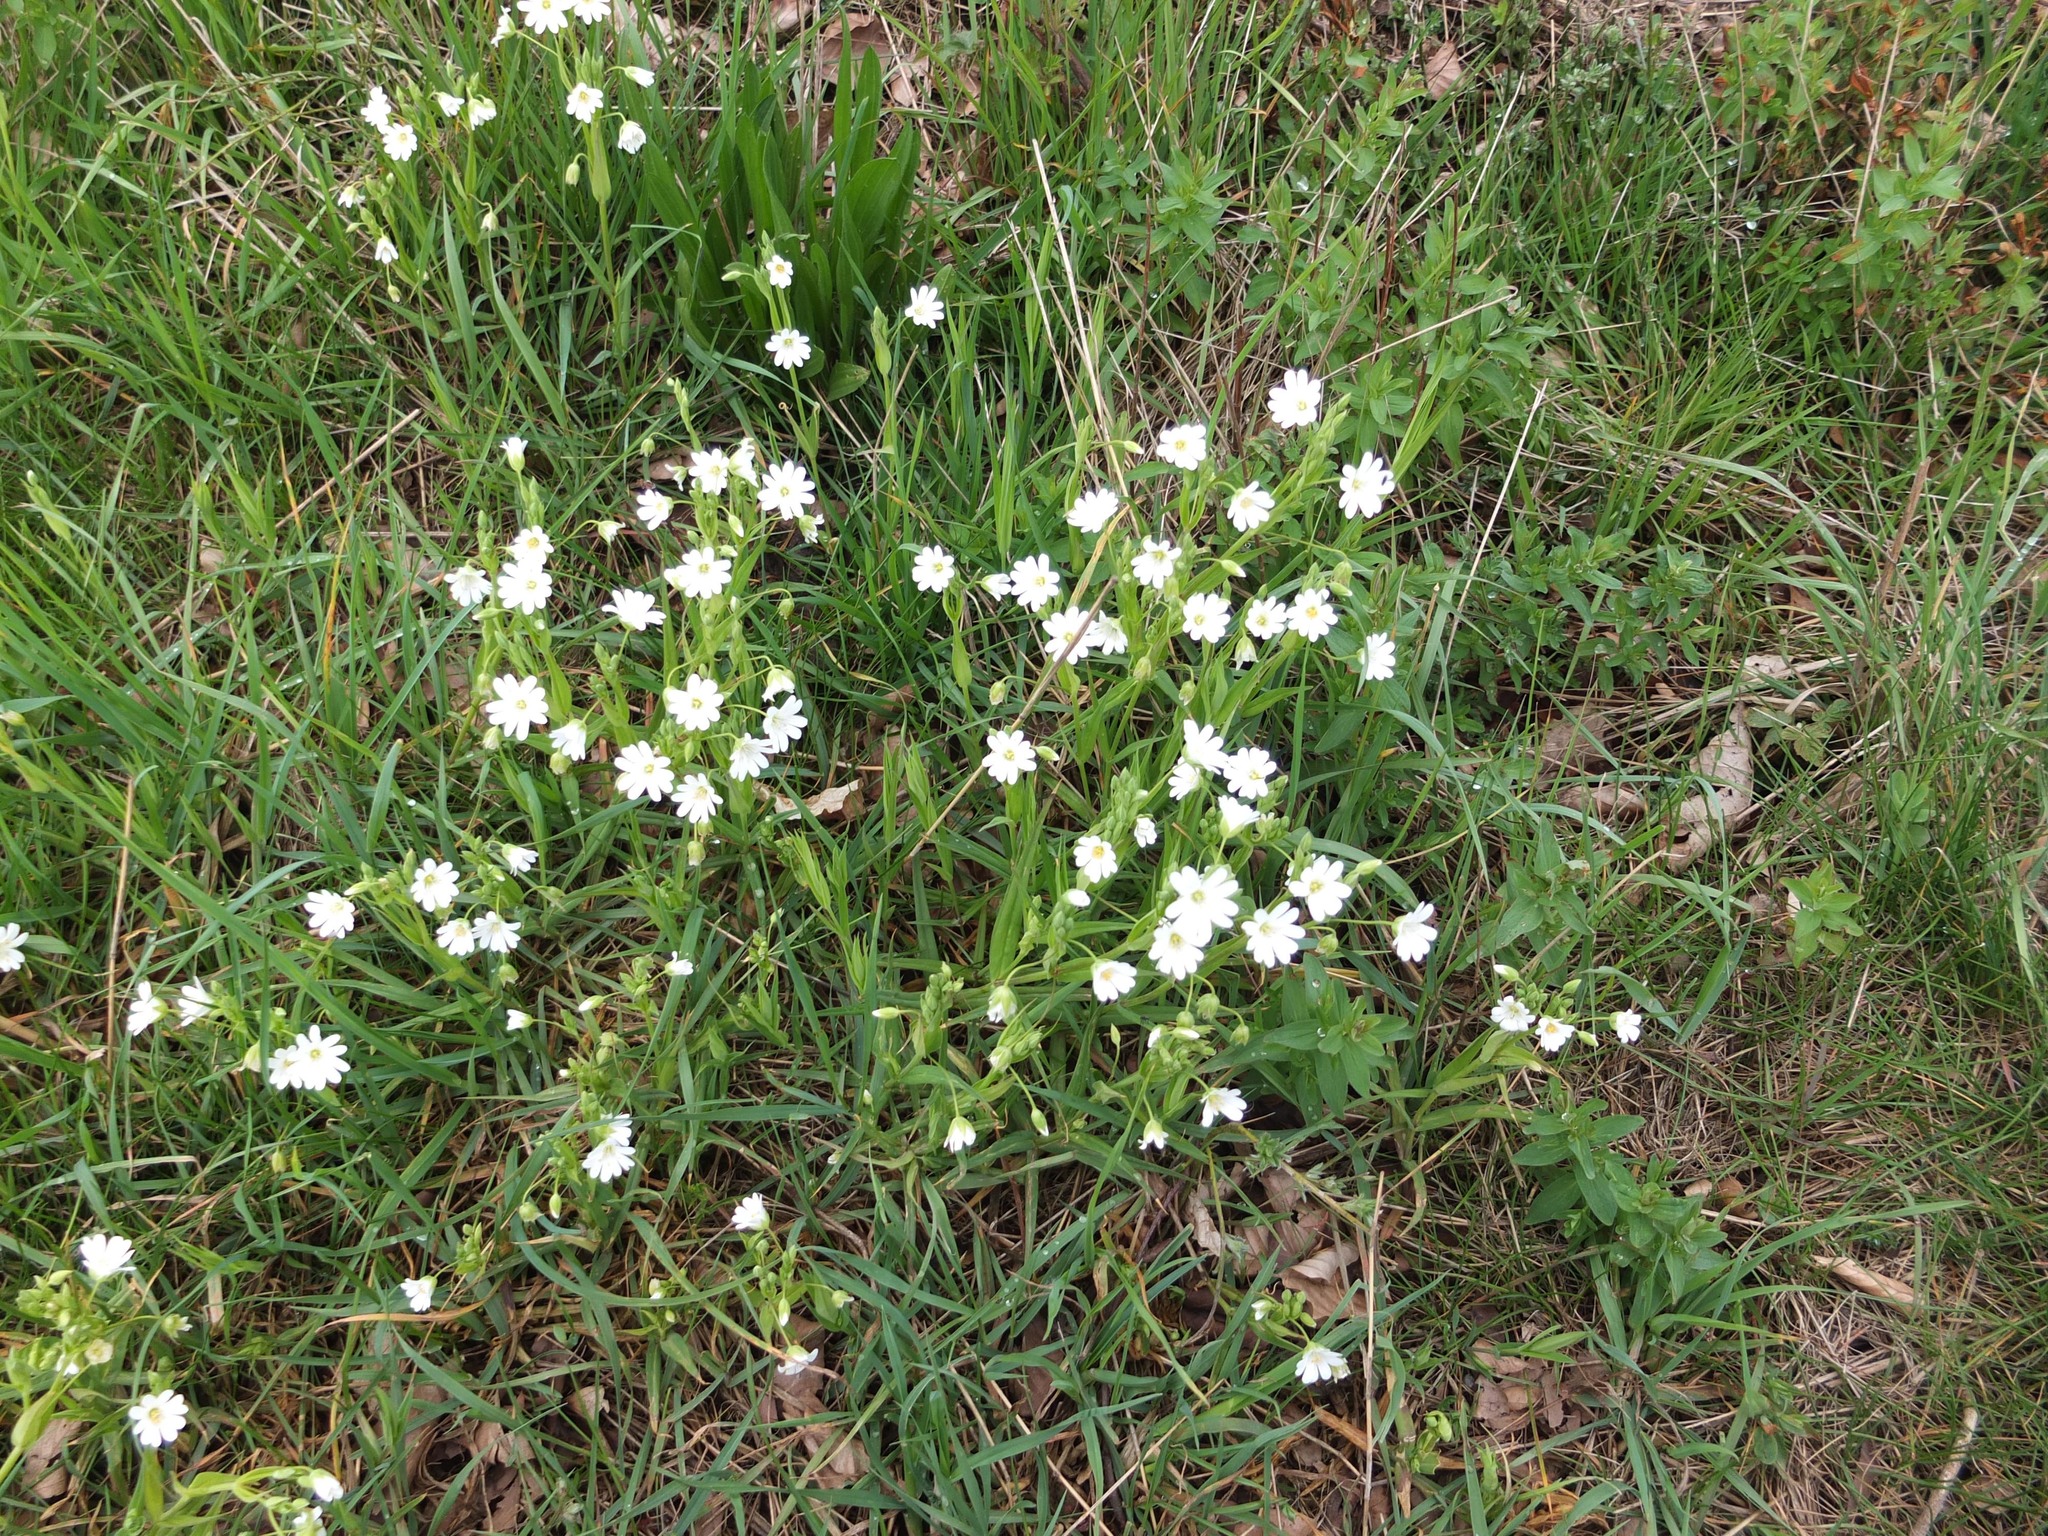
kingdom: Plantae
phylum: Tracheophyta
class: Magnoliopsida
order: Caryophyllales
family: Caryophyllaceae
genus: Rabelera
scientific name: Rabelera holostea
